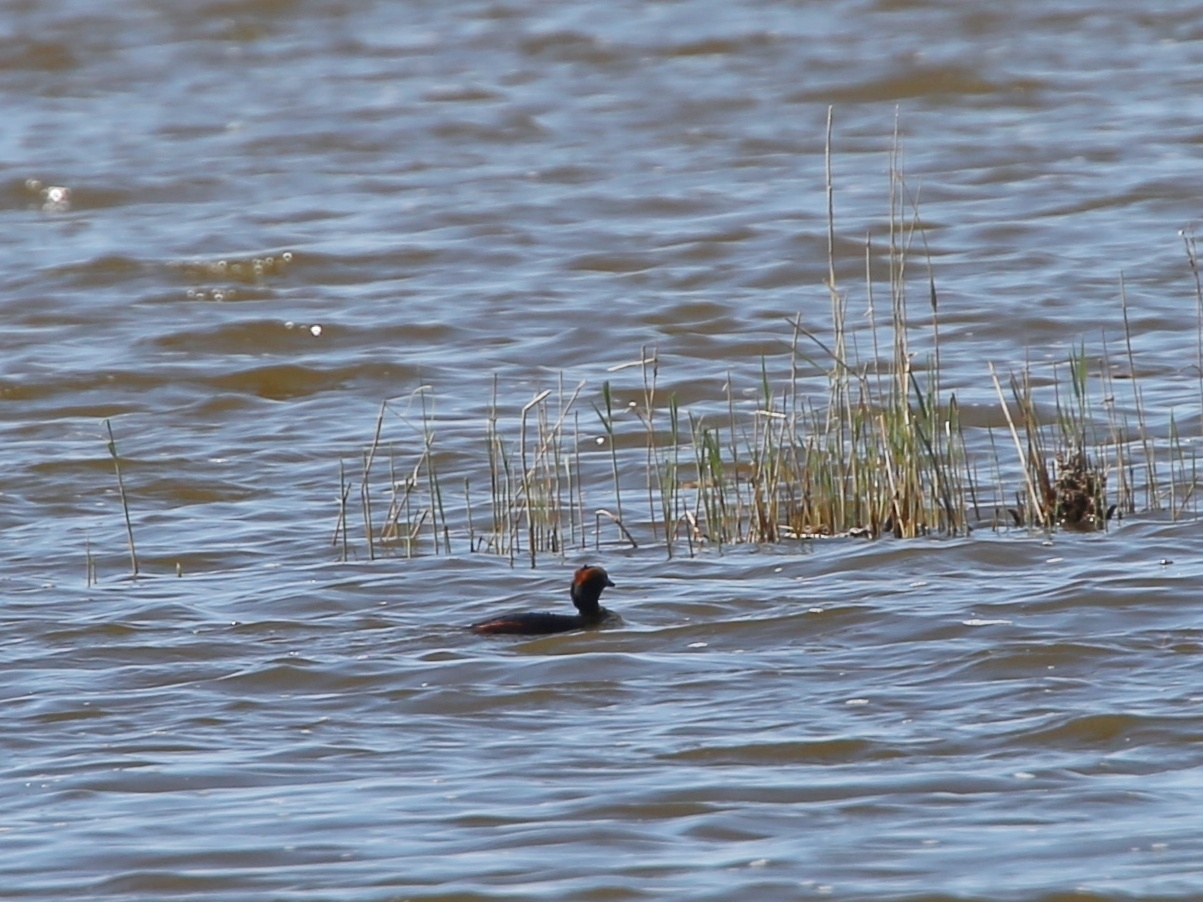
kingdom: Animalia
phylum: Chordata
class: Aves
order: Podicipediformes
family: Podicipedidae
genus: Podiceps
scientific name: Podiceps nigricollis
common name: Black-necked grebe
